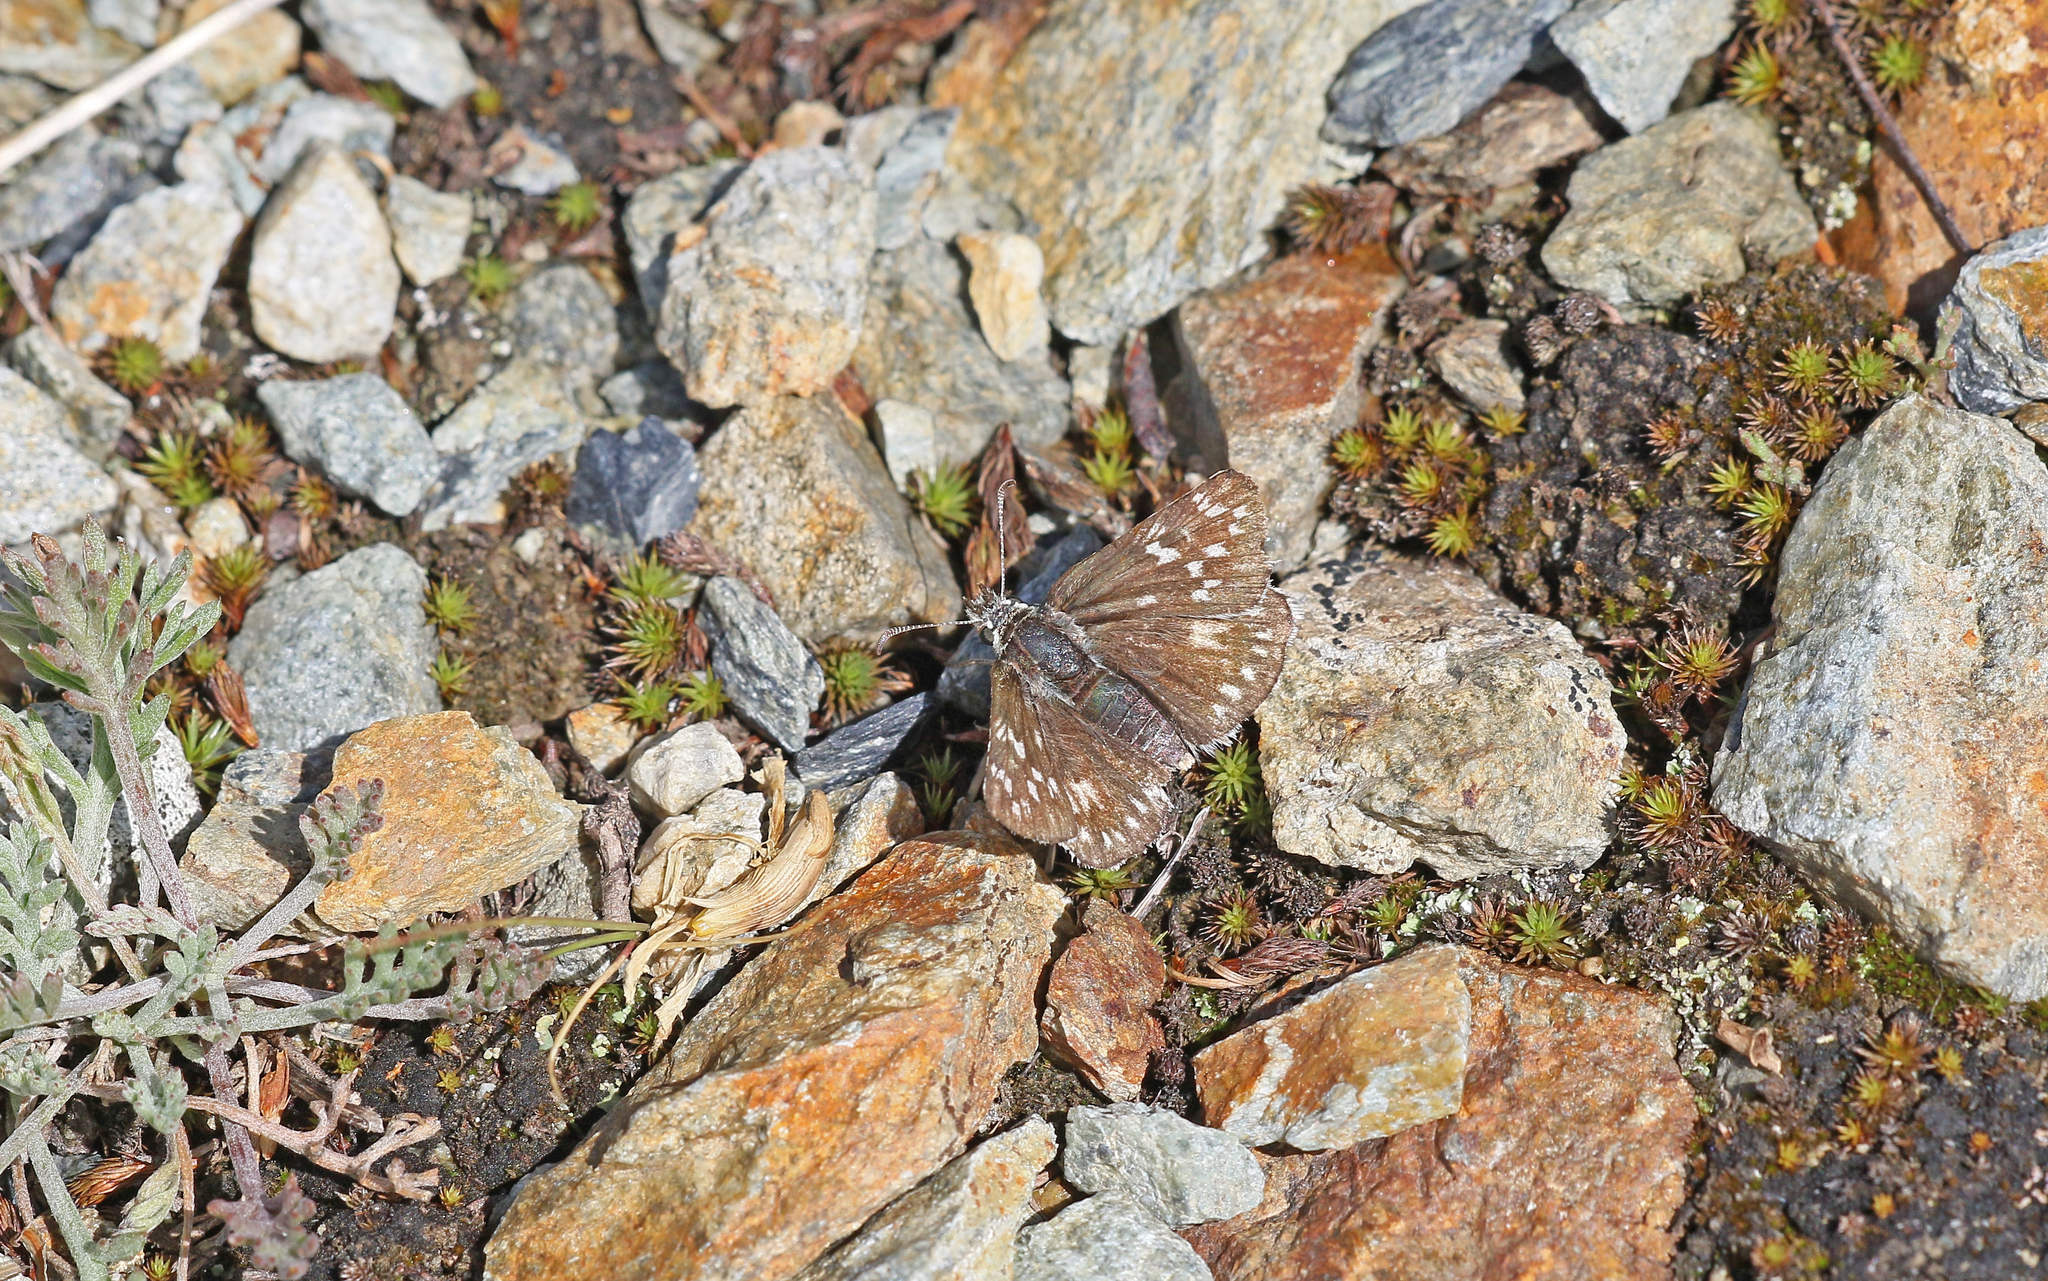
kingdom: Animalia
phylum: Arthropoda
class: Insecta
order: Lepidoptera
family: Hesperiidae
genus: Pyrgus
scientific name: Pyrgus fritillarius
